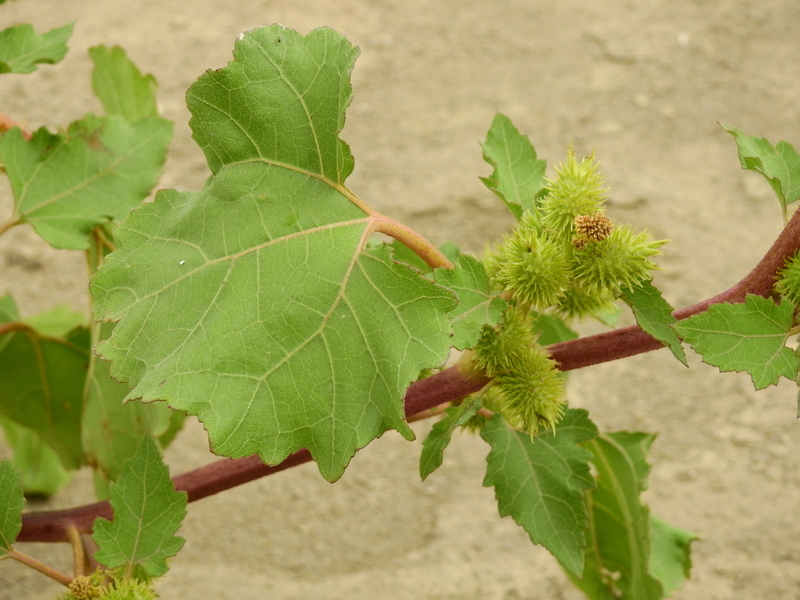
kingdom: Plantae
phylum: Tracheophyta
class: Magnoliopsida
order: Asterales
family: Asteraceae
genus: Xanthium
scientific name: Xanthium strumarium
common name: Rough cocklebur
